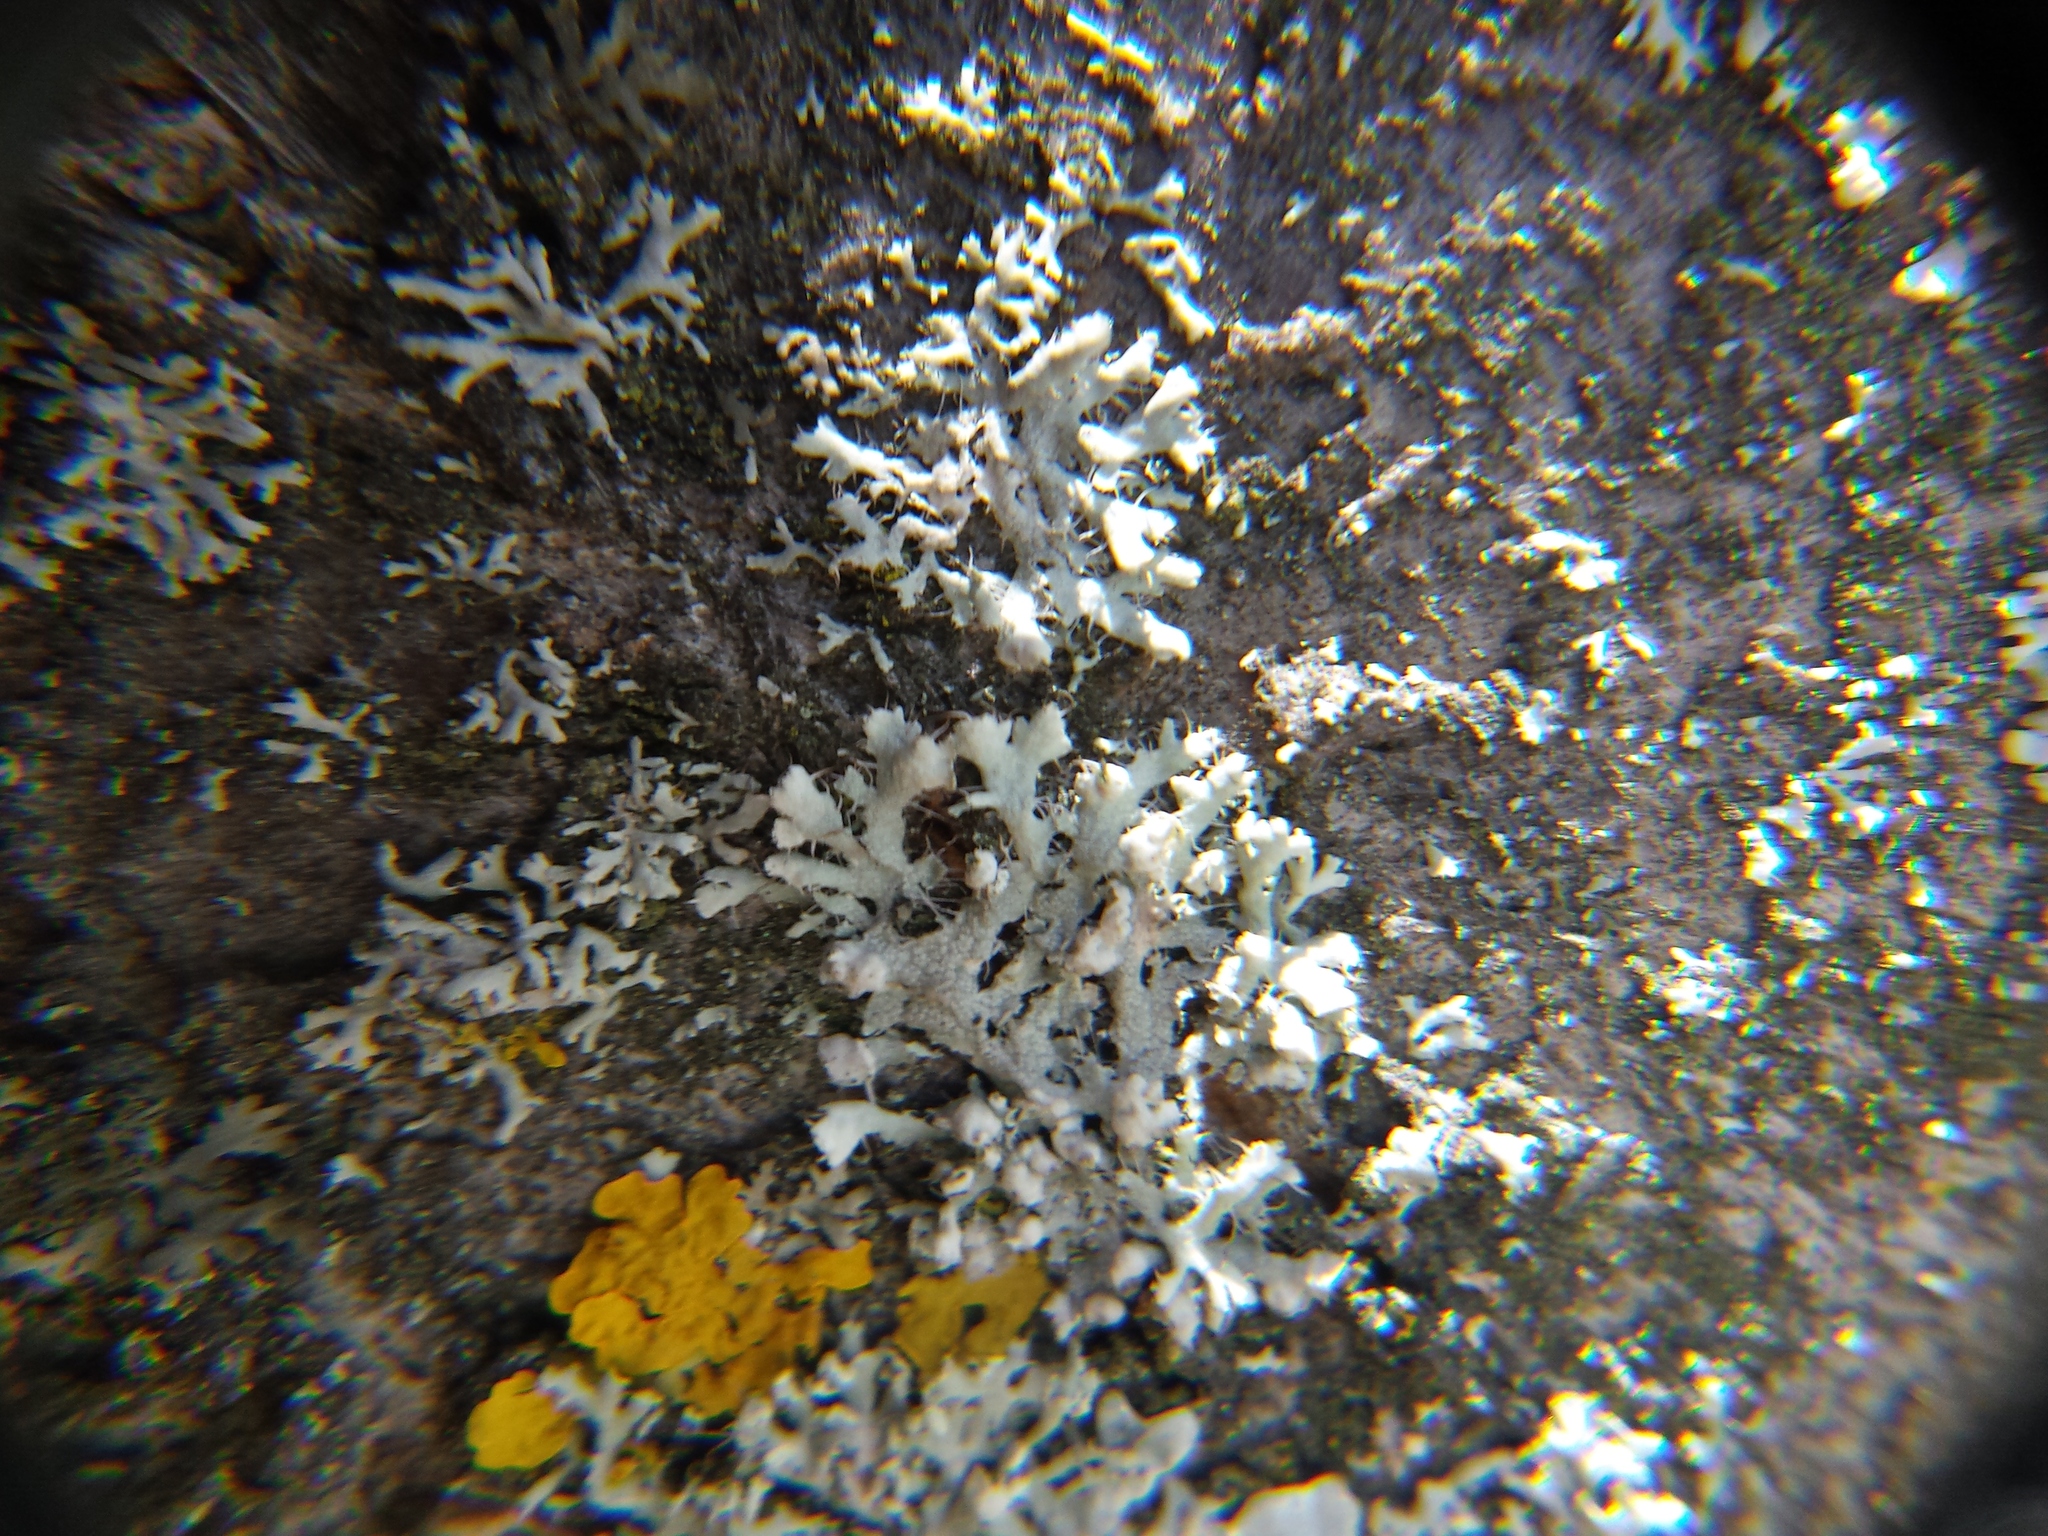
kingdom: Fungi
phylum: Ascomycota
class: Lecanoromycetes
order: Caliciales
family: Physciaceae
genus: Physcia
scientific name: Physcia adscendens
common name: Hooded rosette lichen
